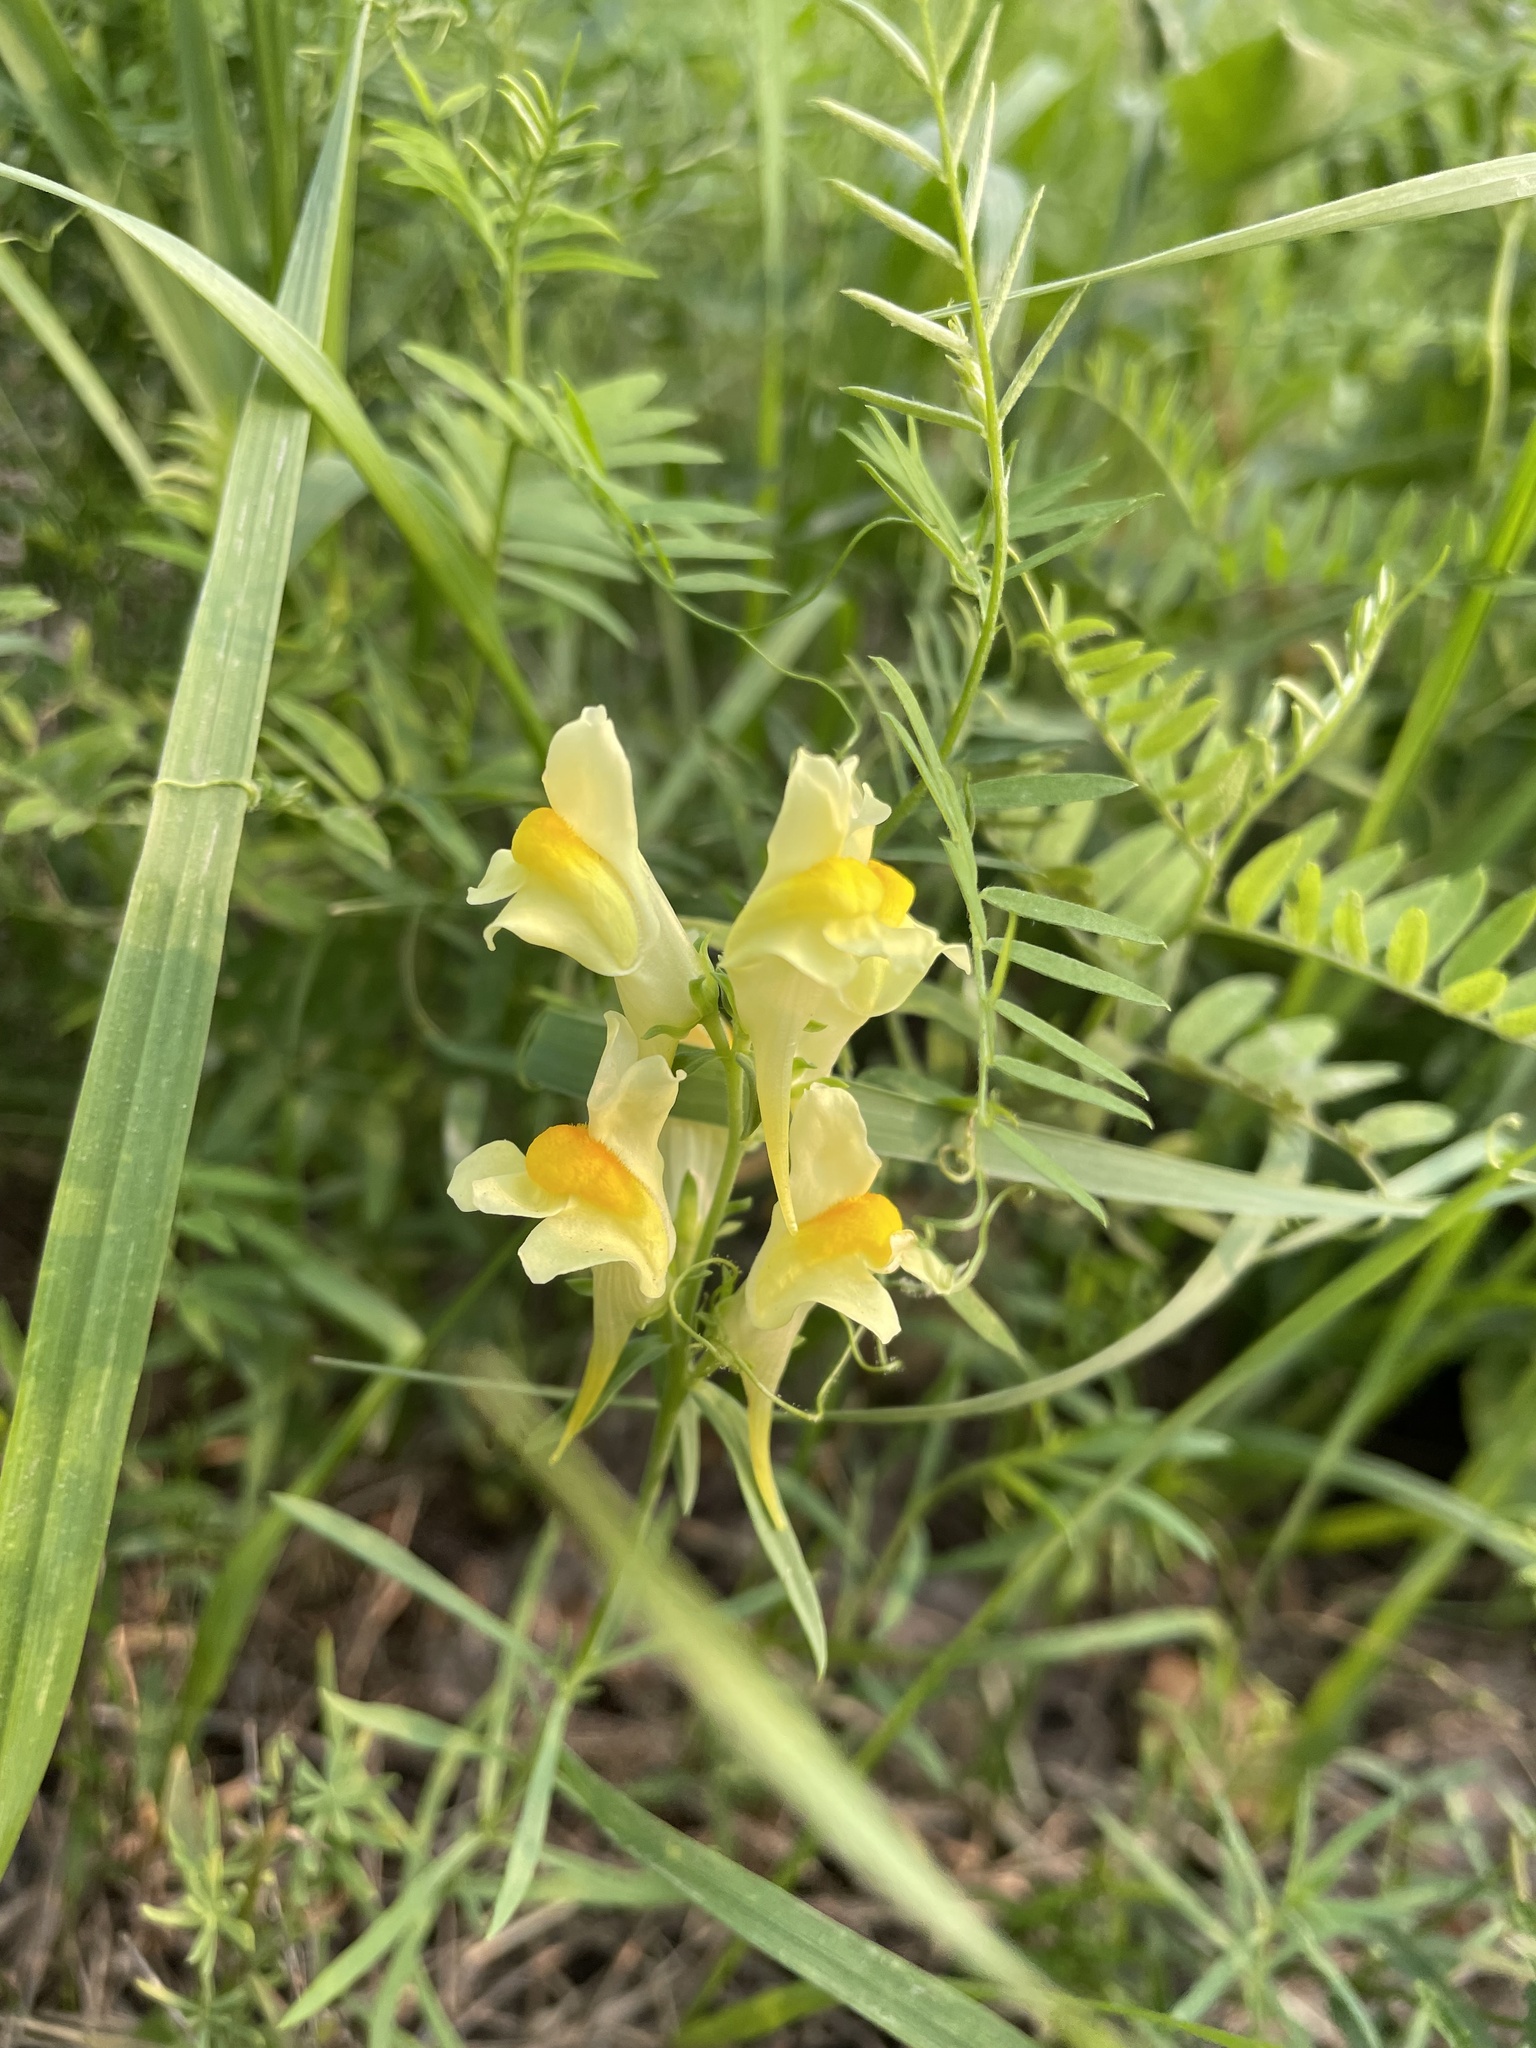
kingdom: Plantae
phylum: Tracheophyta
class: Magnoliopsida
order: Lamiales
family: Plantaginaceae
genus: Linaria
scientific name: Linaria vulgaris
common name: Butter and eggs
